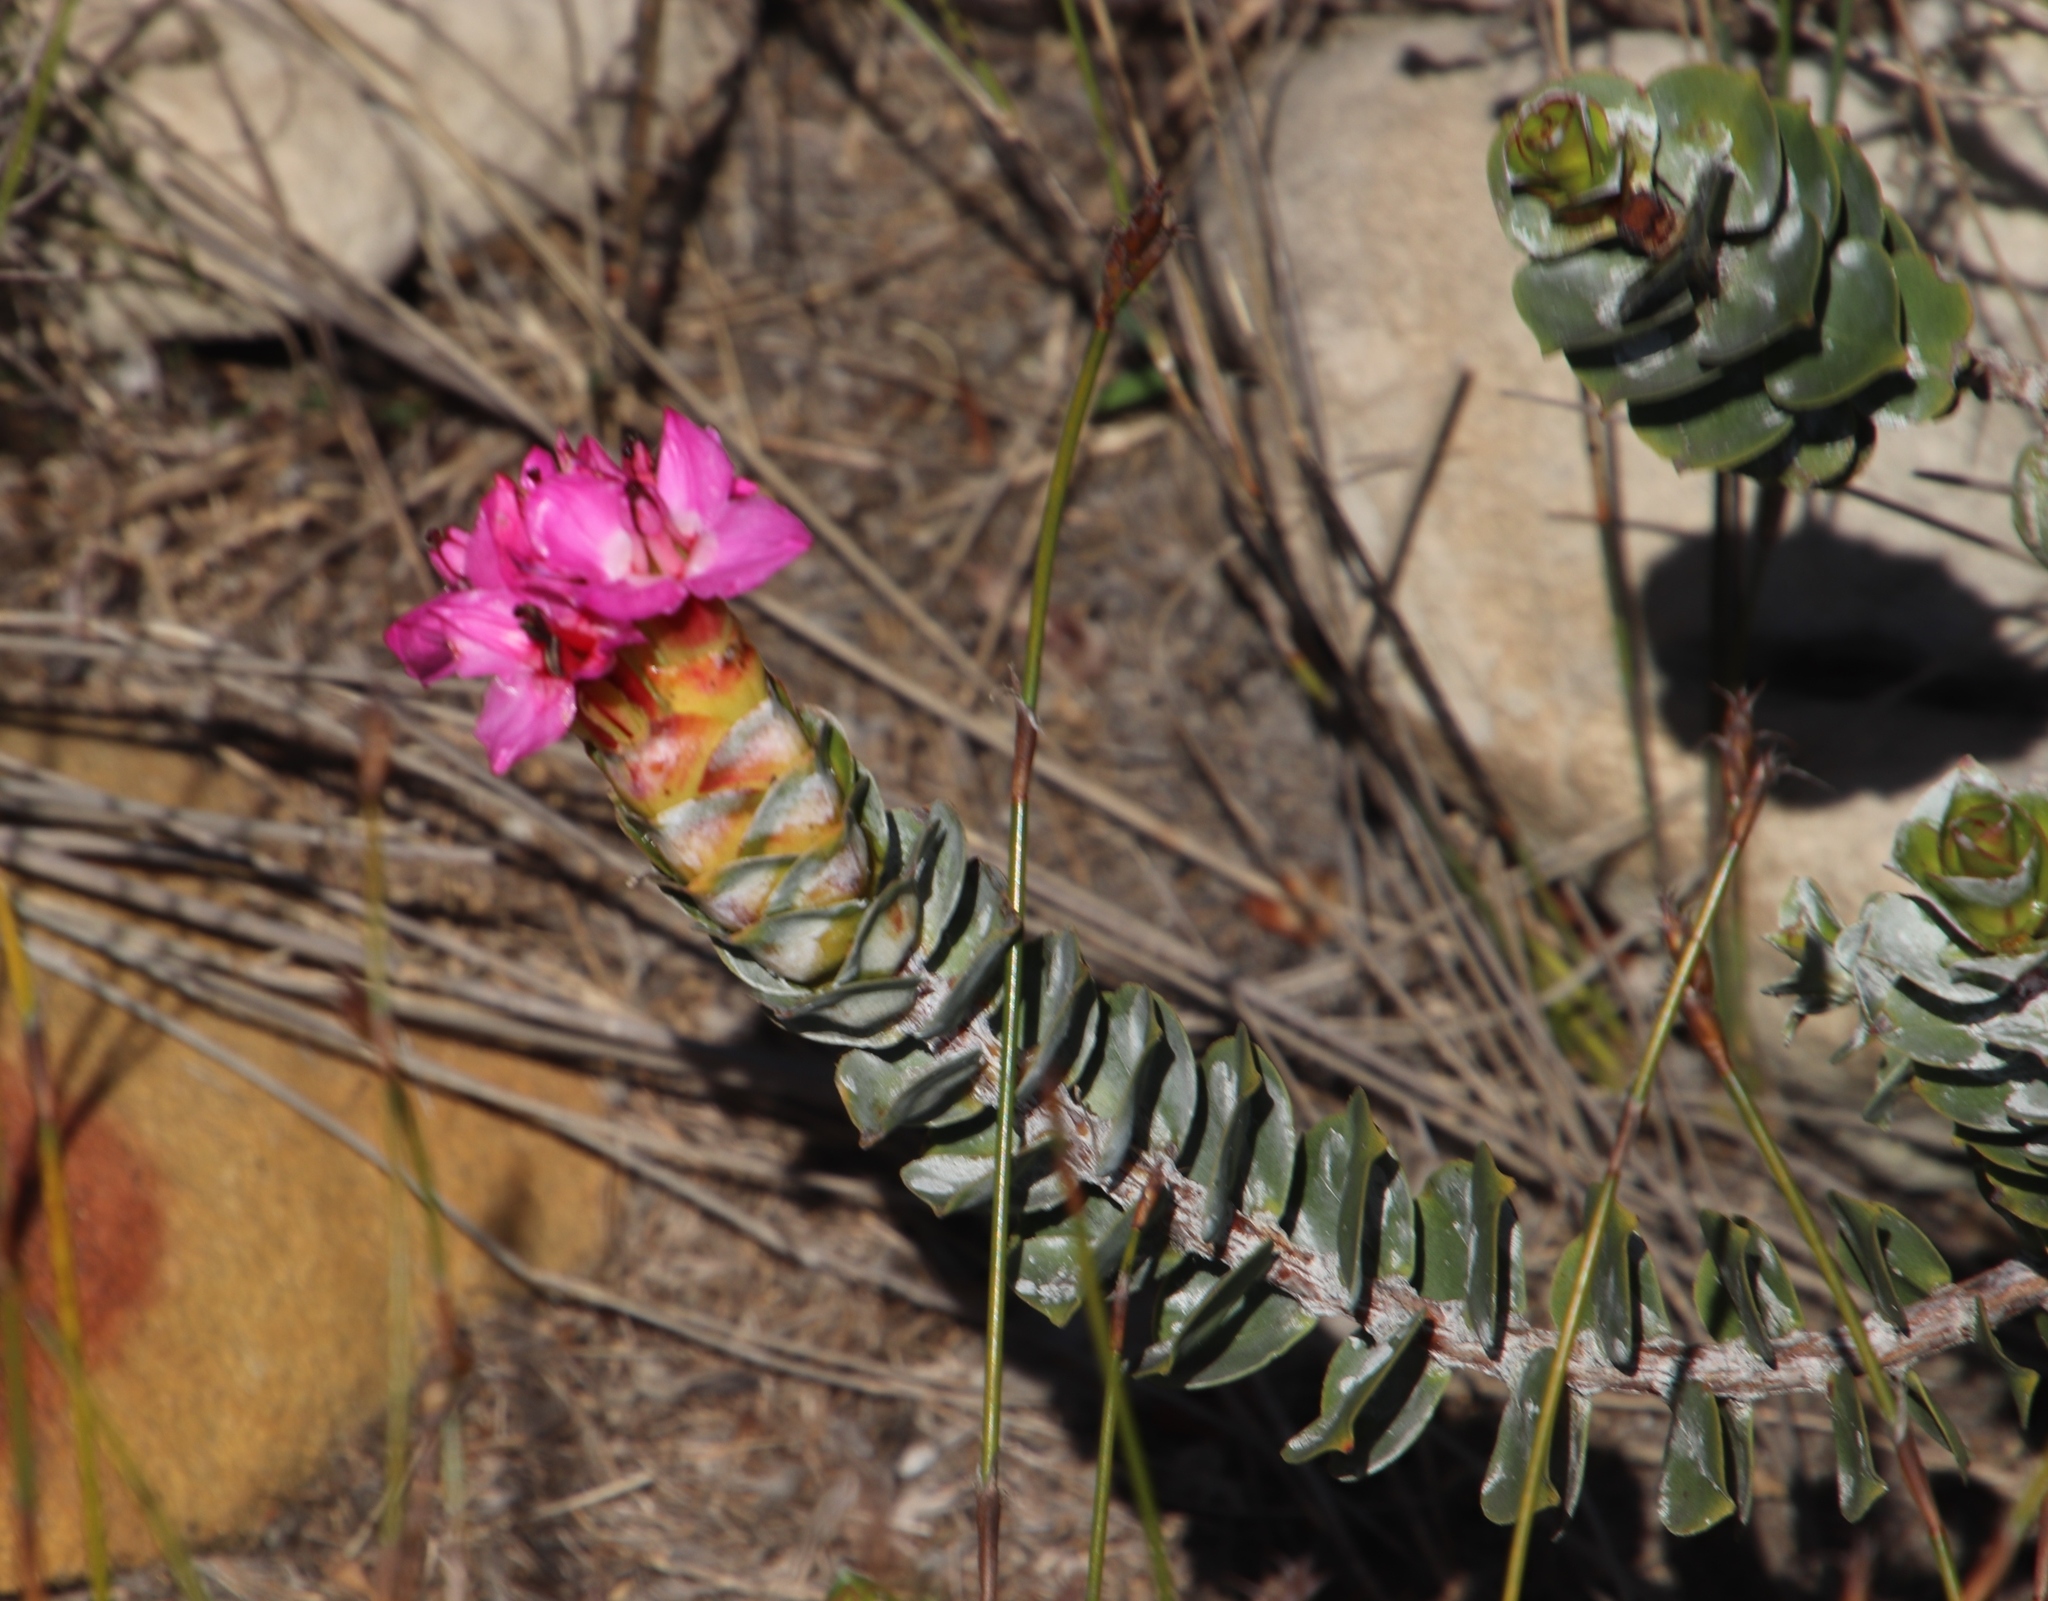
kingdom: Plantae
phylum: Tracheophyta
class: Magnoliopsida
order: Myrtales
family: Penaeaceae
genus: Saltera
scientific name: Saltera sarcocolla
